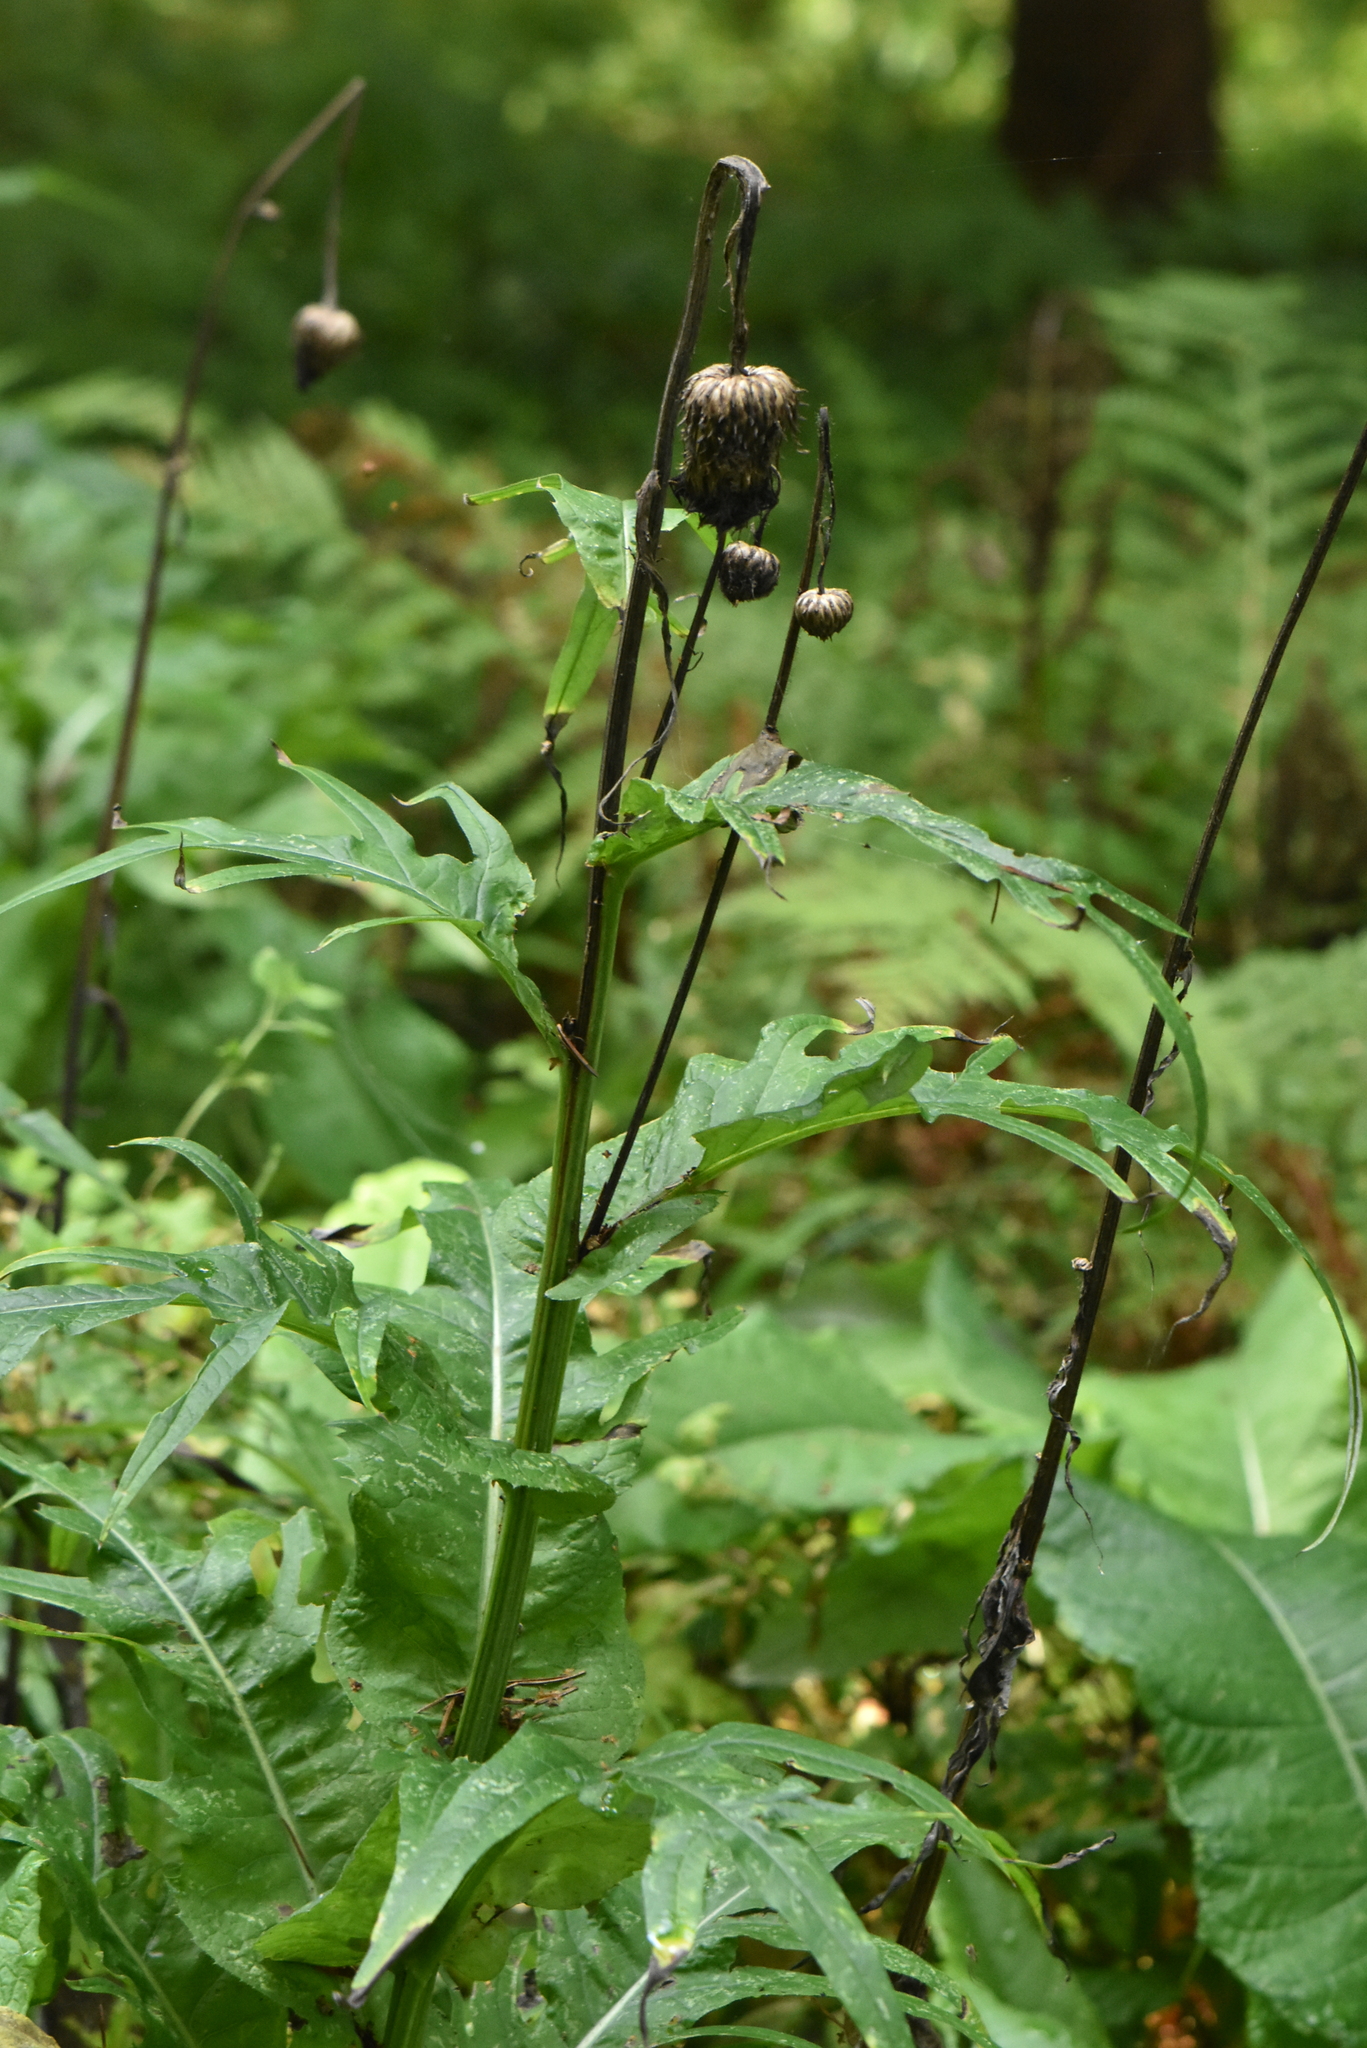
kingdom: Plantae
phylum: Tracheophyta
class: Magnoliopsida
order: Asterales
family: Asteraceae
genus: Cirsium
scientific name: Cirsium heterophyllum
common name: Melancholy thistle
